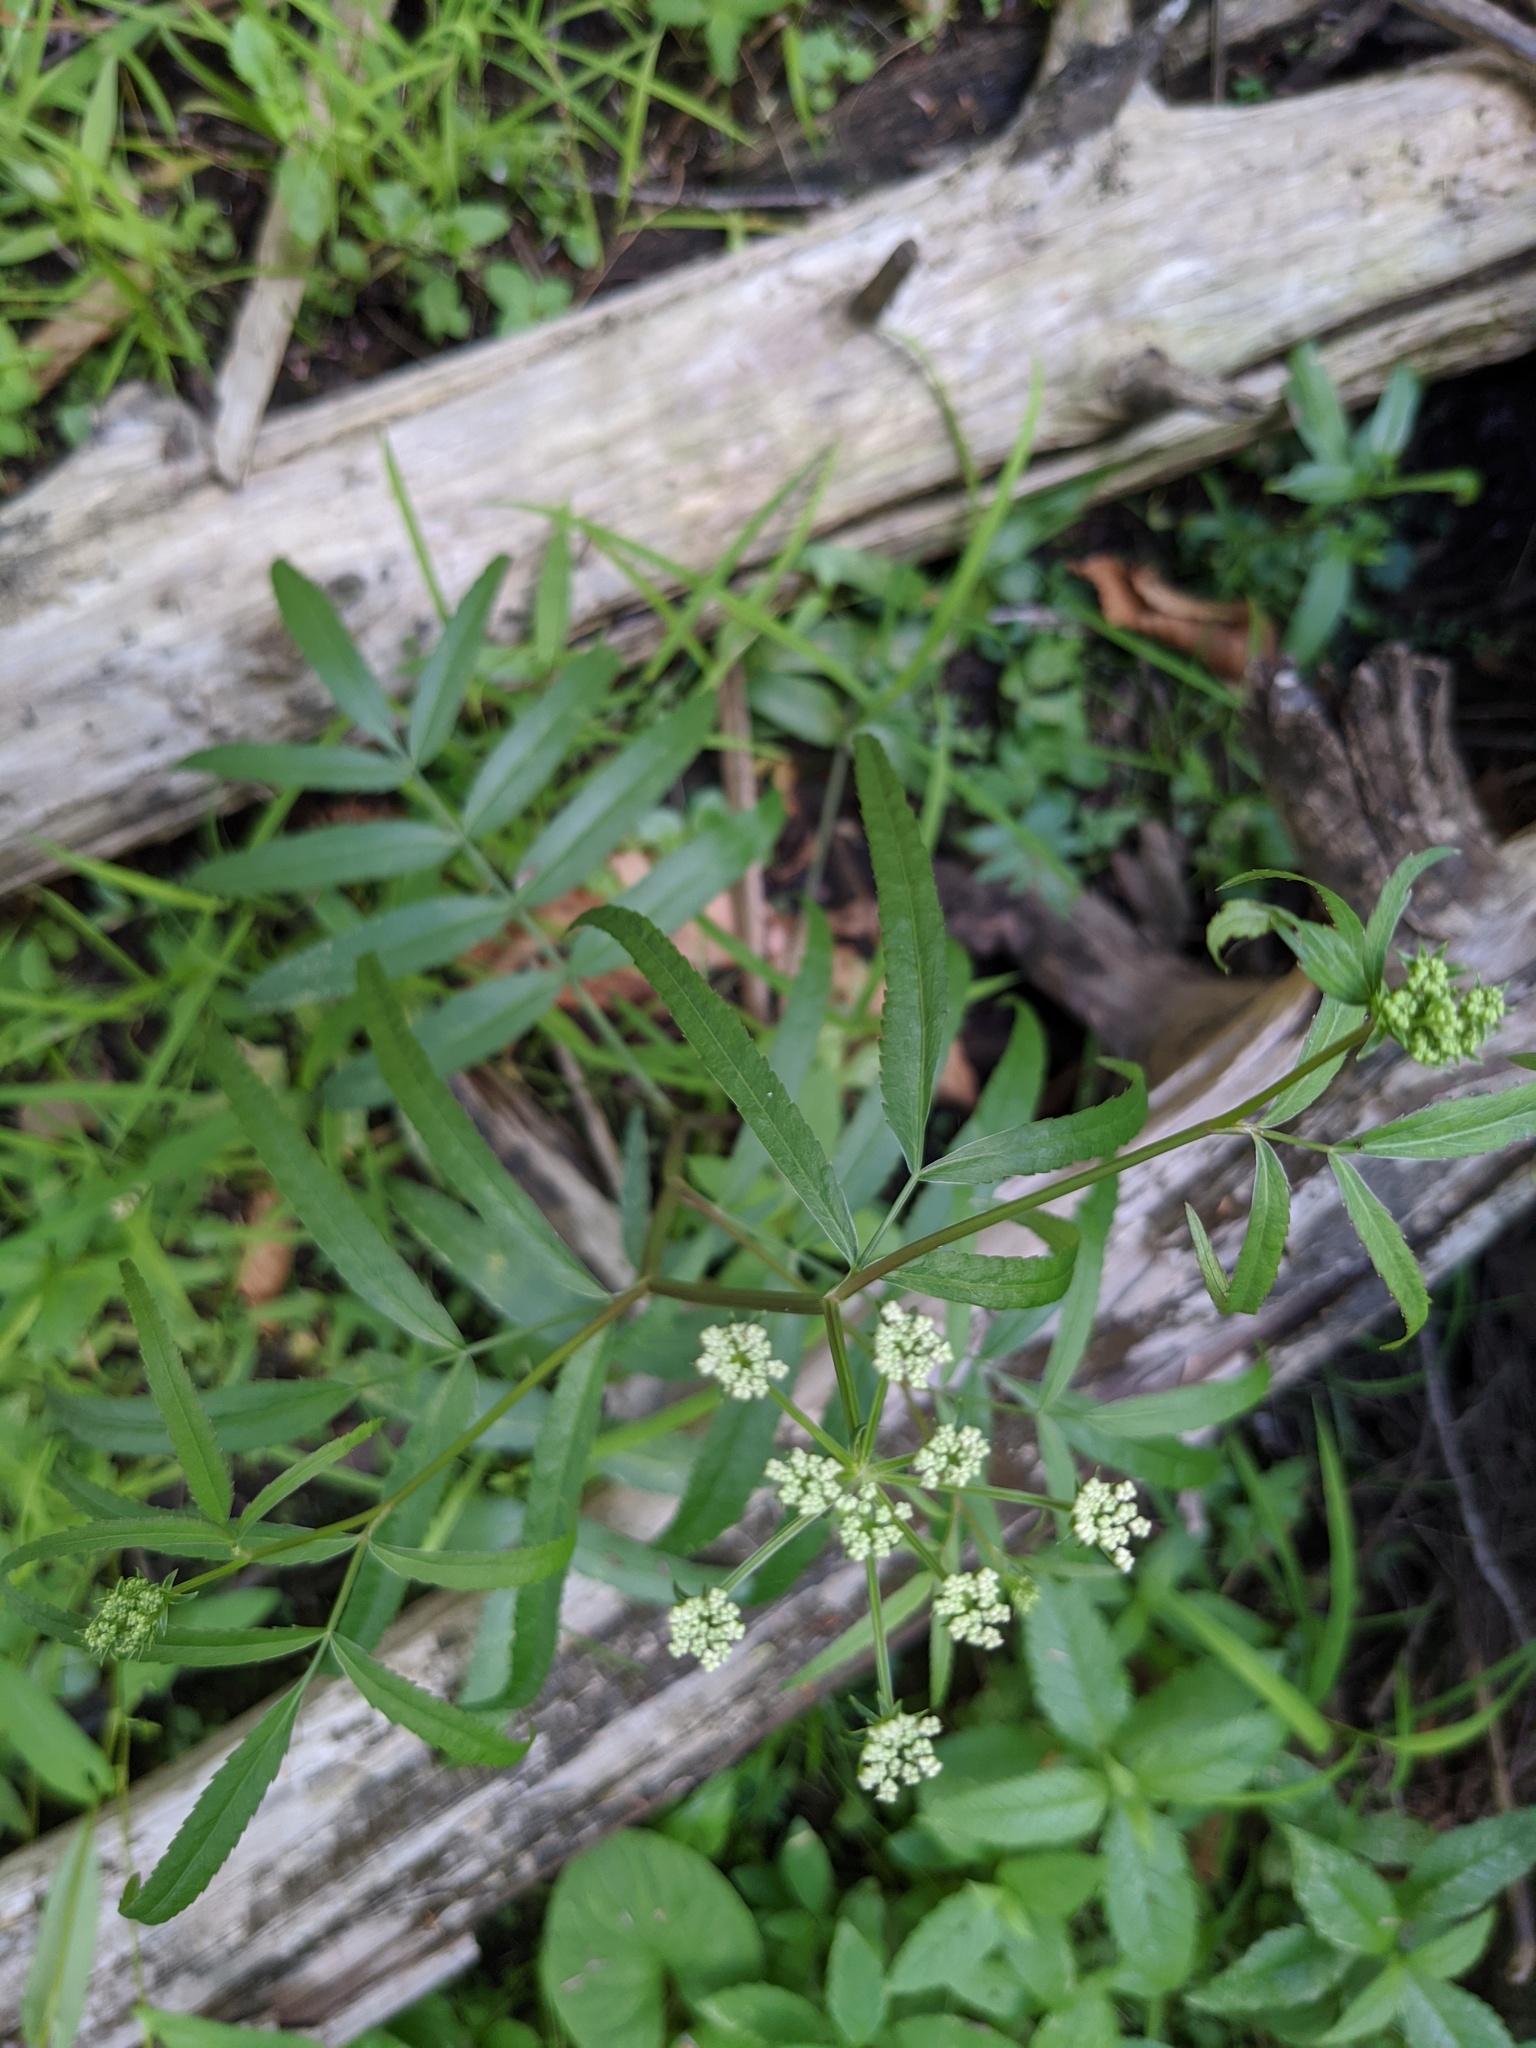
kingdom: Plantae
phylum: Tracheophyta
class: Magnoliopsida
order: Apiales
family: Apiaceae
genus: Sium
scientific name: Sium suave
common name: Hemlock water-parsnip
